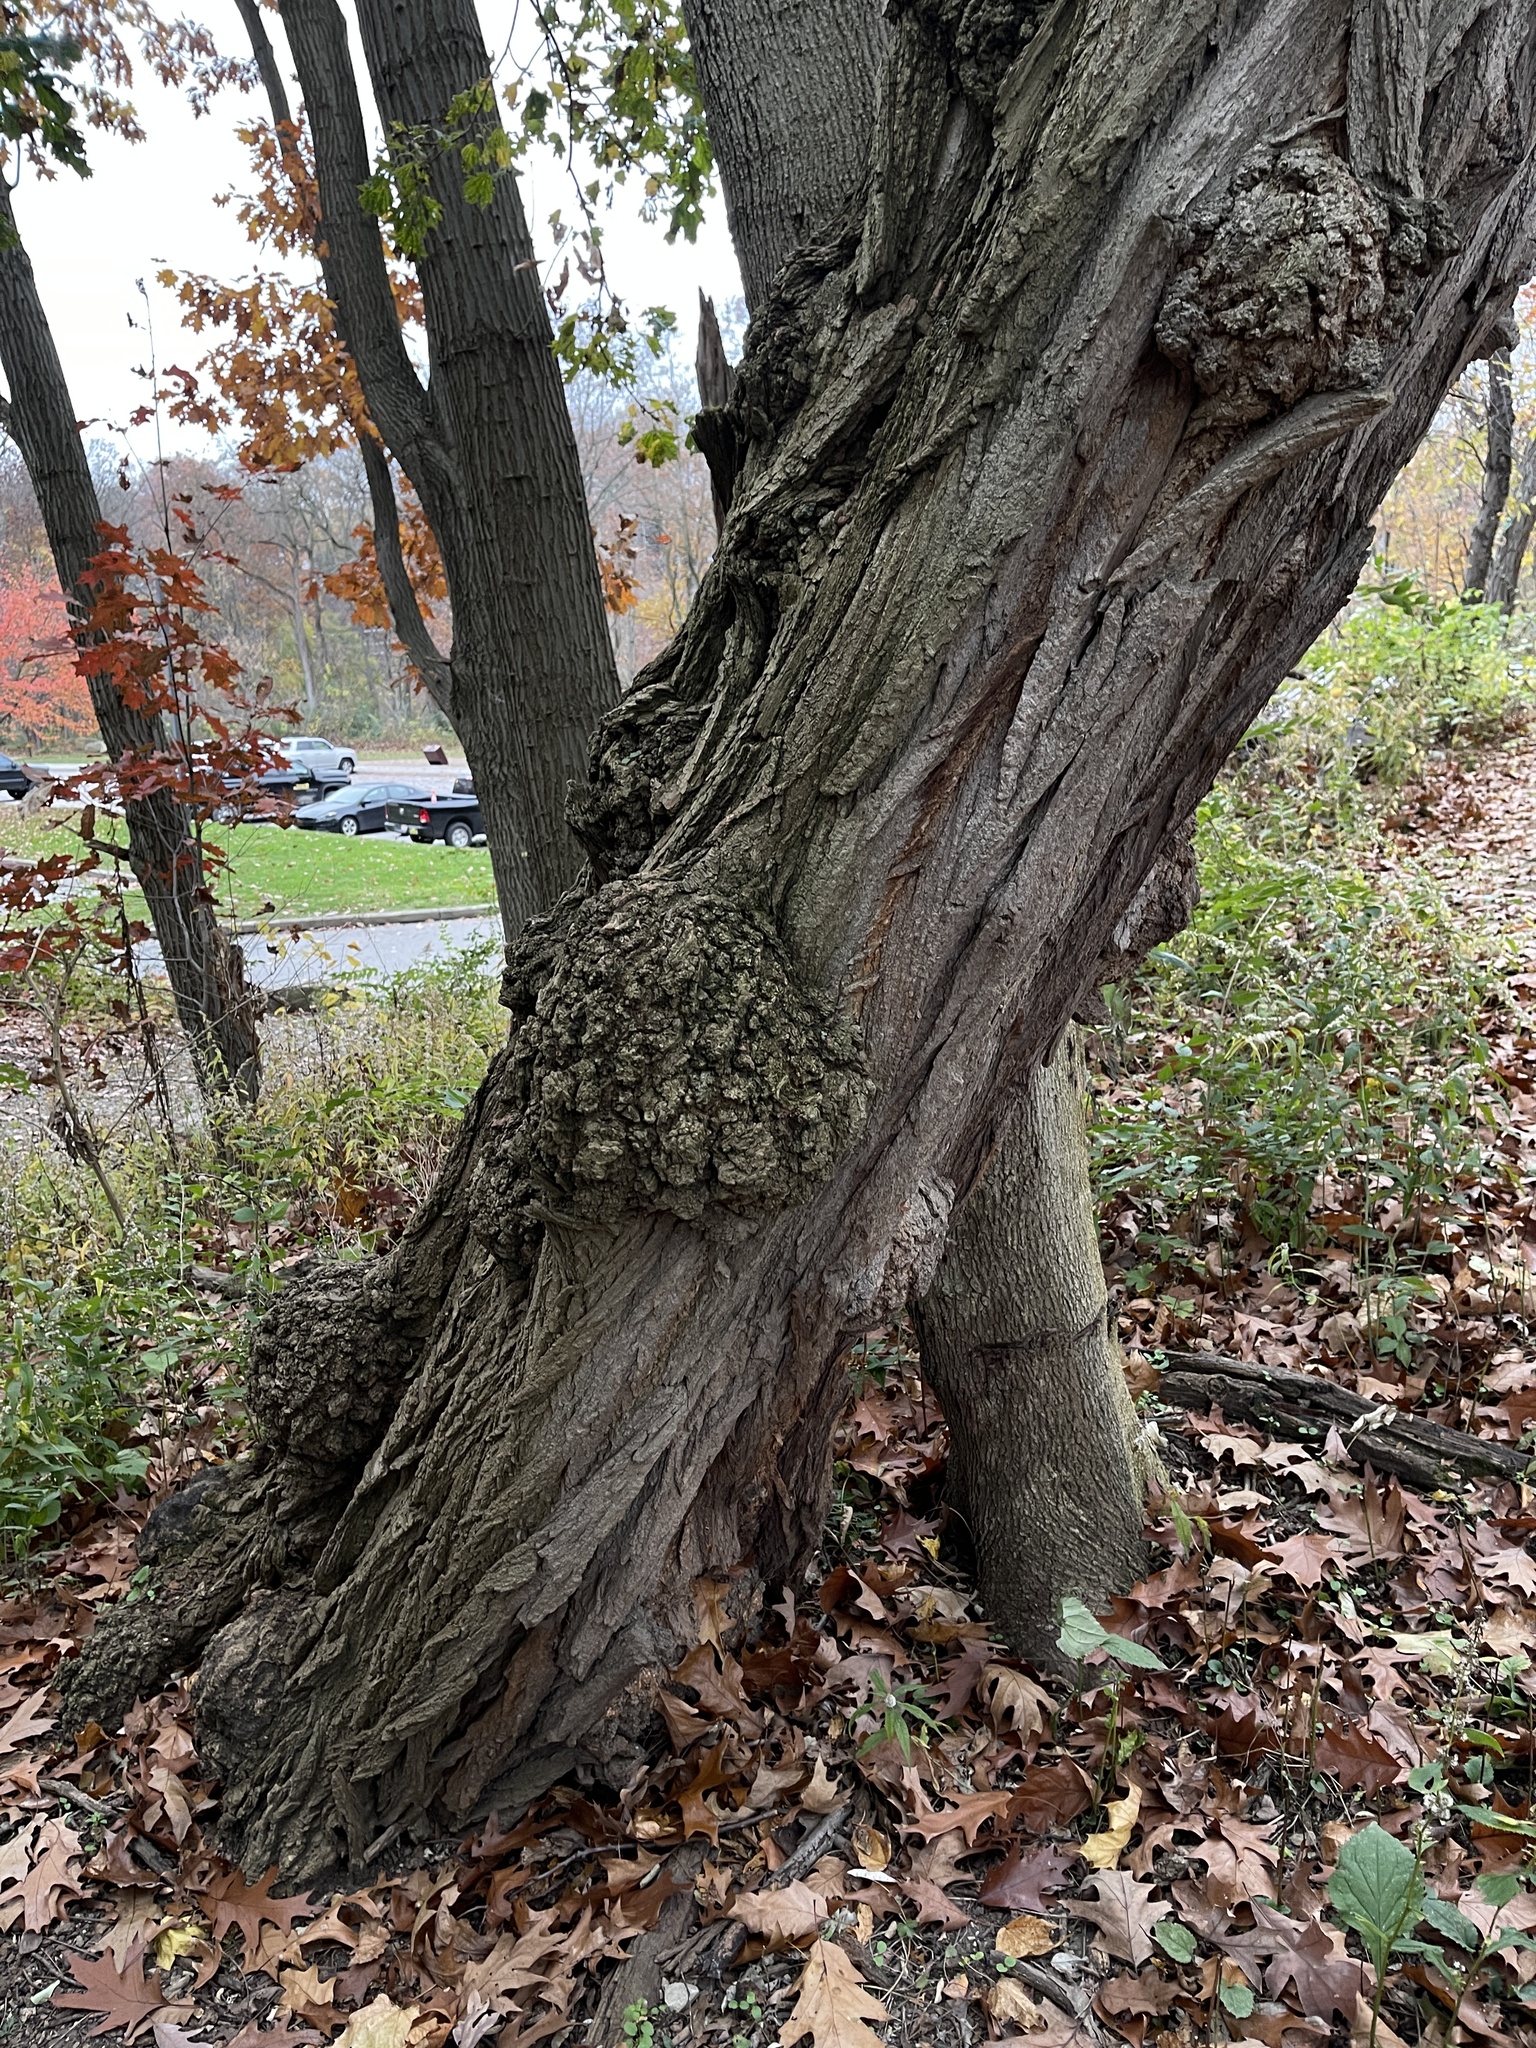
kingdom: Bacteria
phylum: Proteobacteria
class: Alphaproteobacteria
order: Rhizobiales
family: Rhizobiaceae
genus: Rhizobium
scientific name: Rhizobium Agrobacterium radiobacter
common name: Bacterial crown gall
